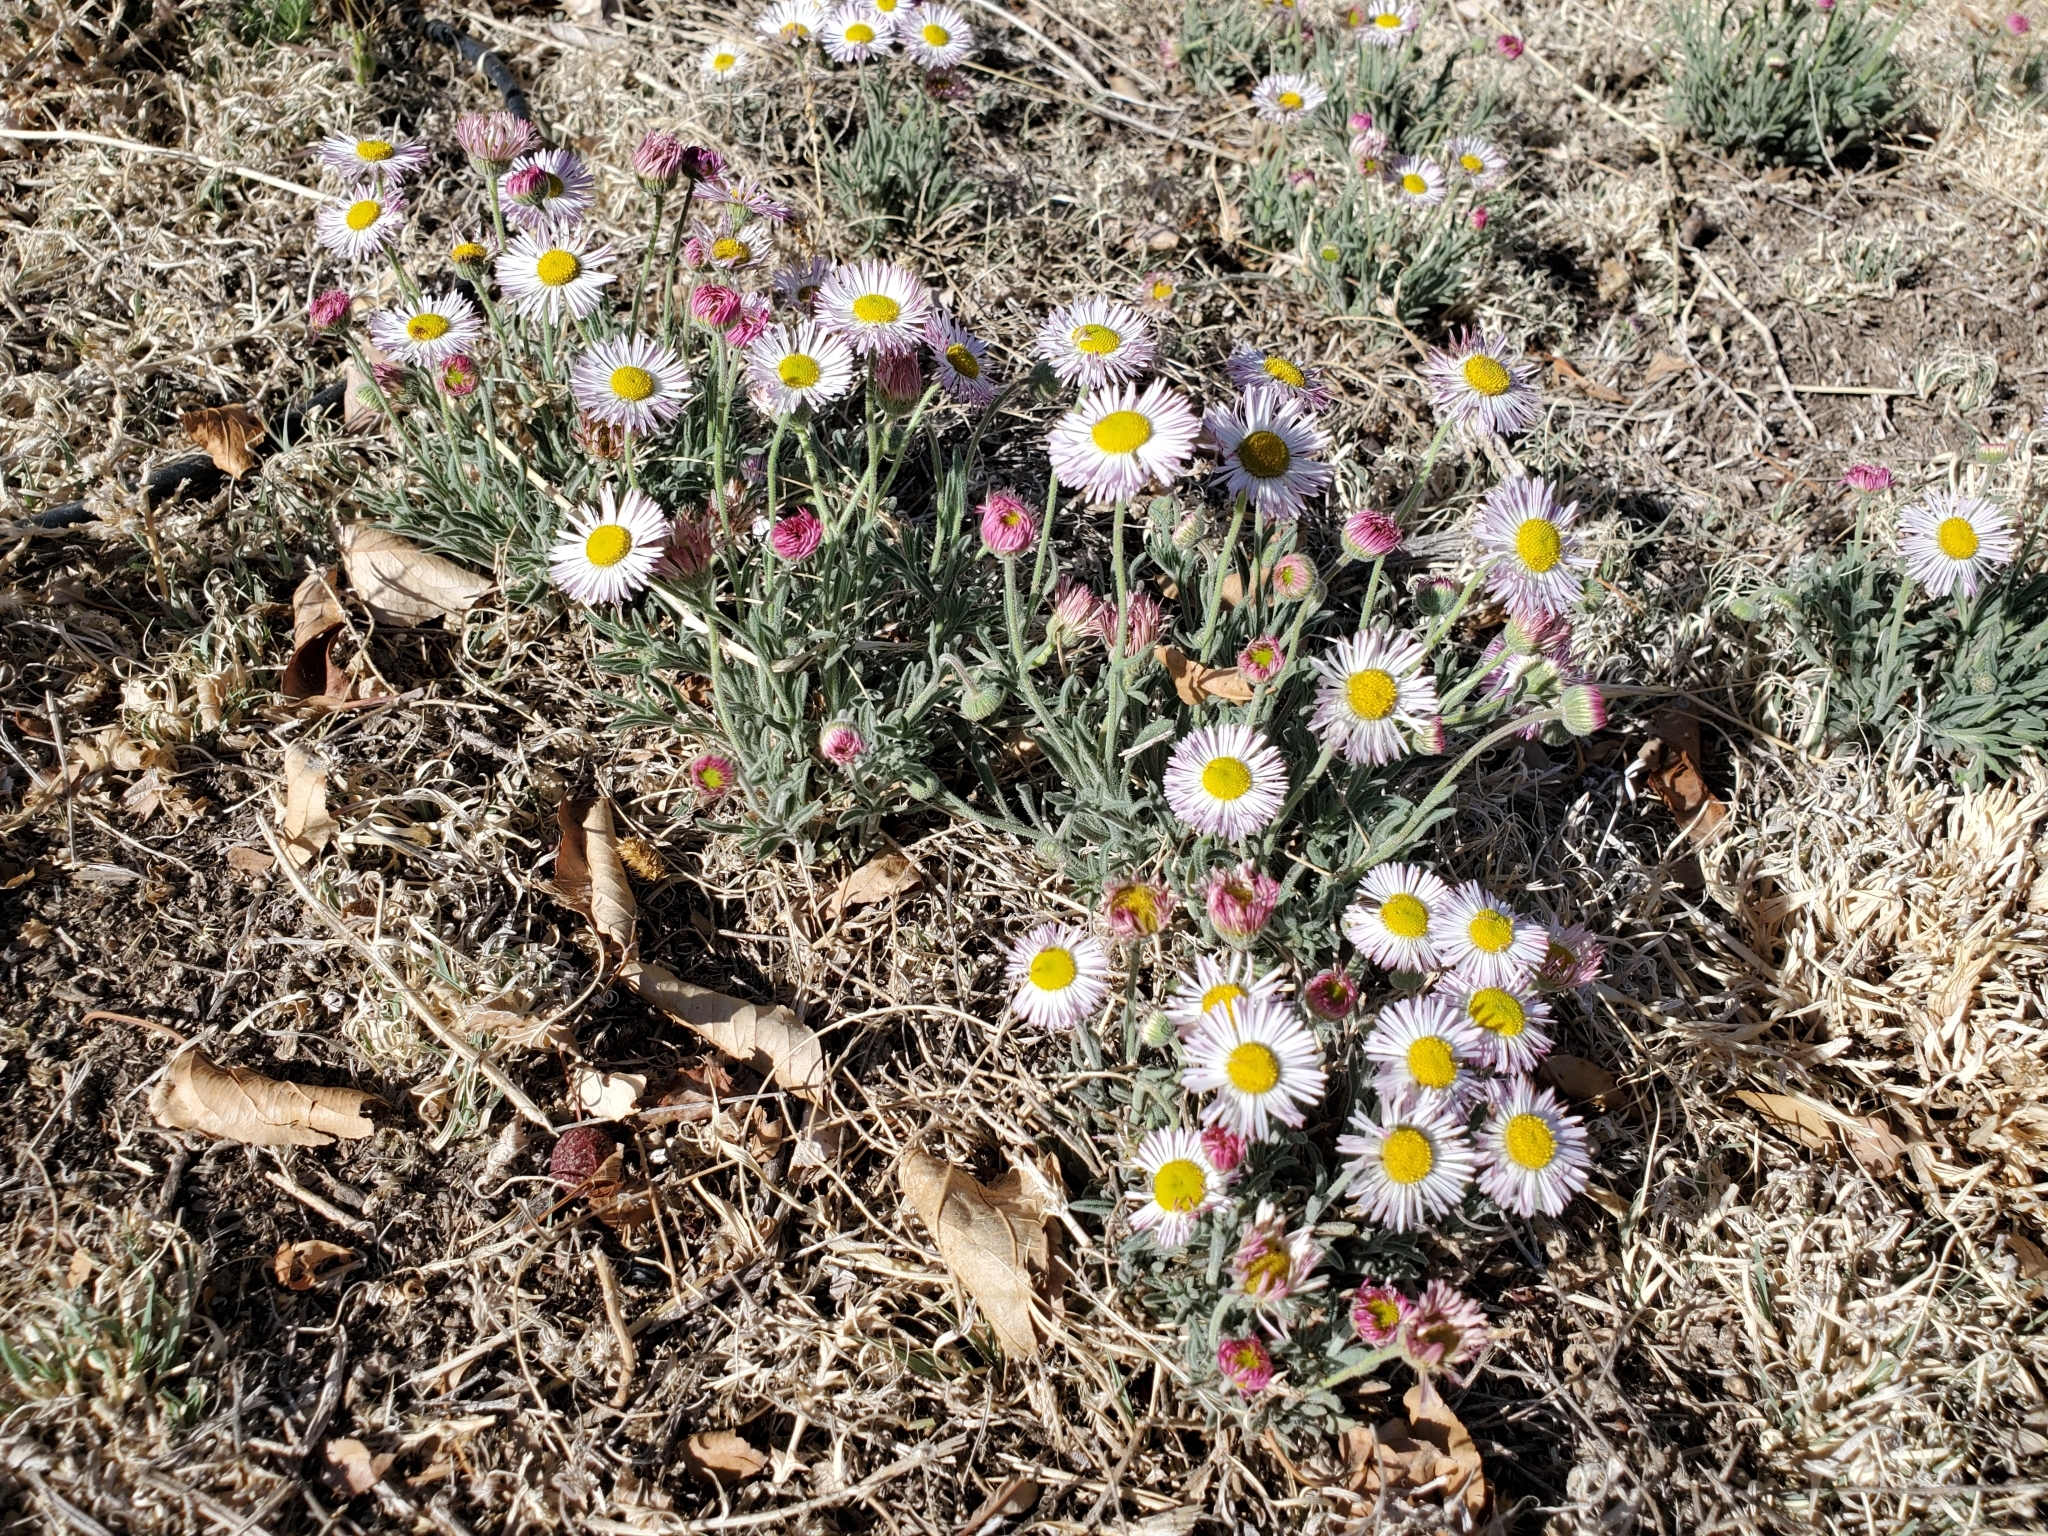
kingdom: Plantae
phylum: Tracheophyta
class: Magnoliopsida
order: Asterales
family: Asteraceae
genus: Erigeron
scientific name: Erigeron tracyi
